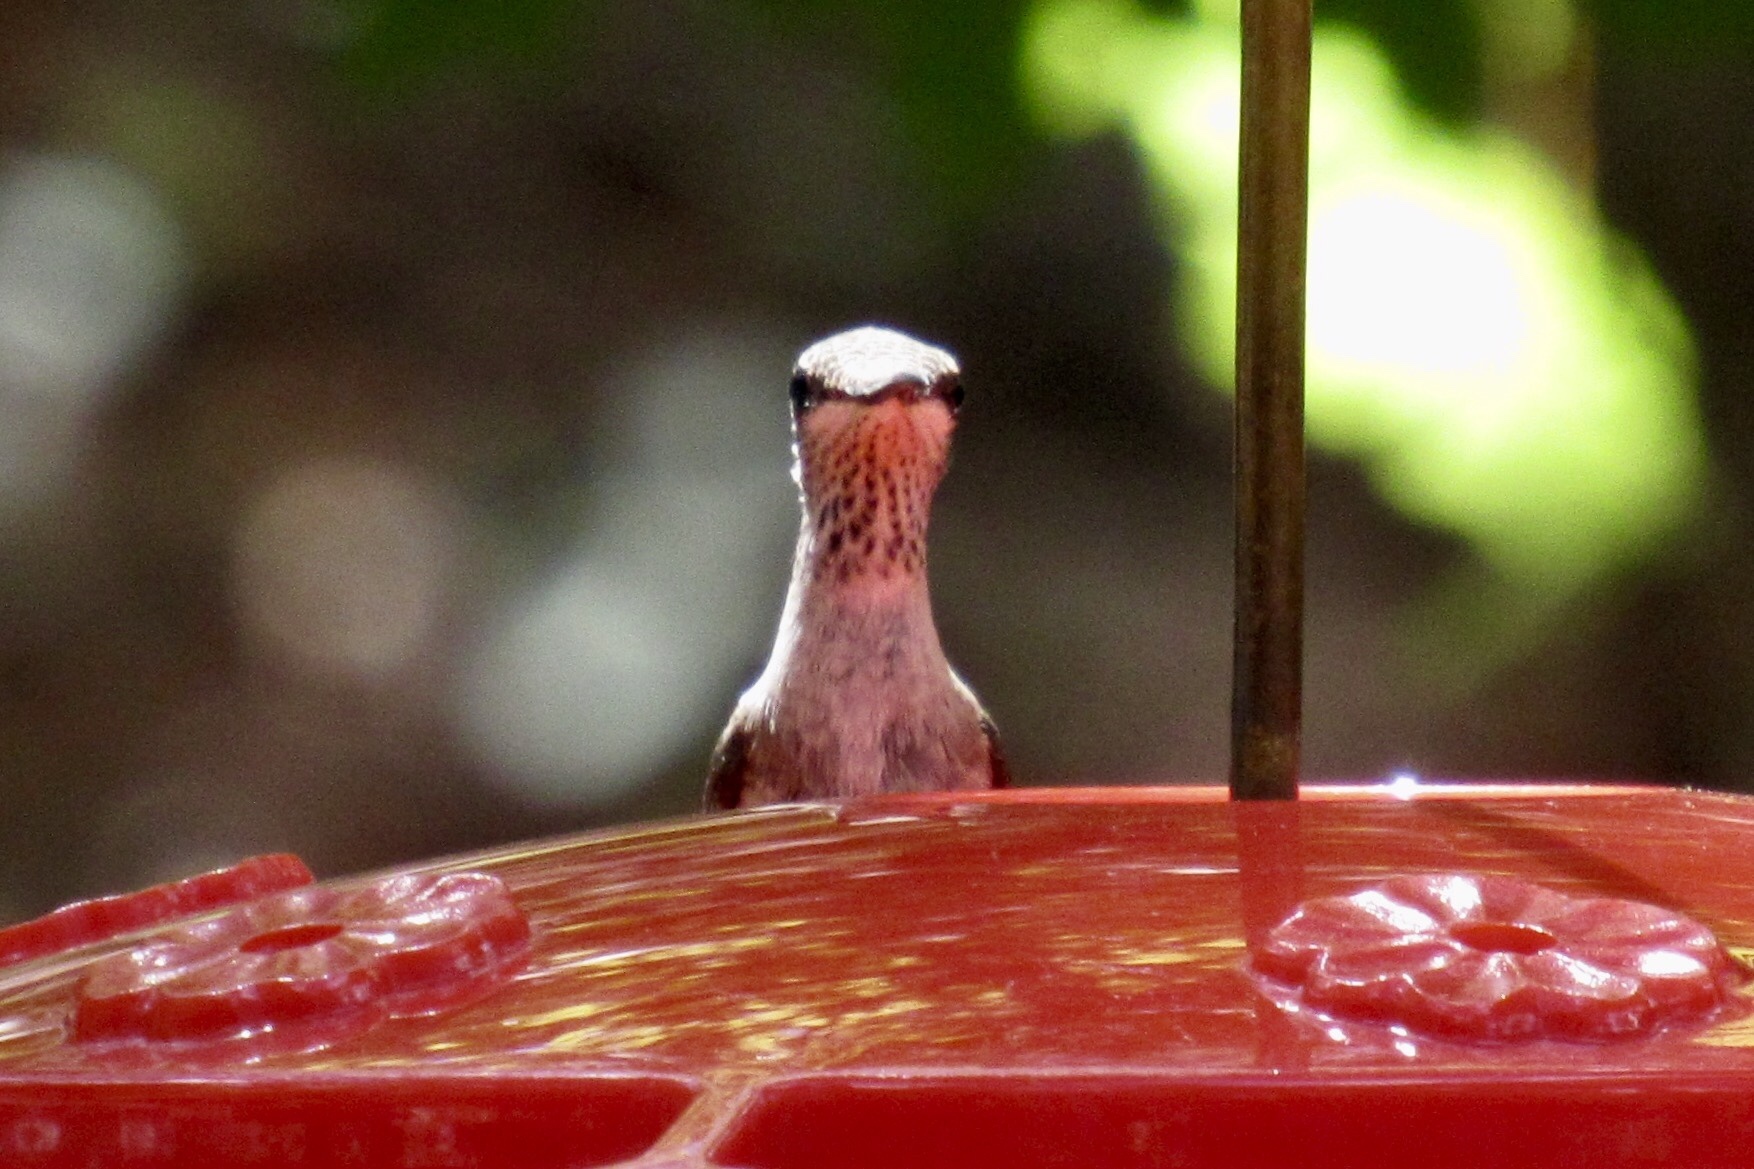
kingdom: Animalia
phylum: Chordata
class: Aves
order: Apodiformes
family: Trochilidae
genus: Archilochus
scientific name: Archilochus alexandri
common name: Black-chinned hummingbird
